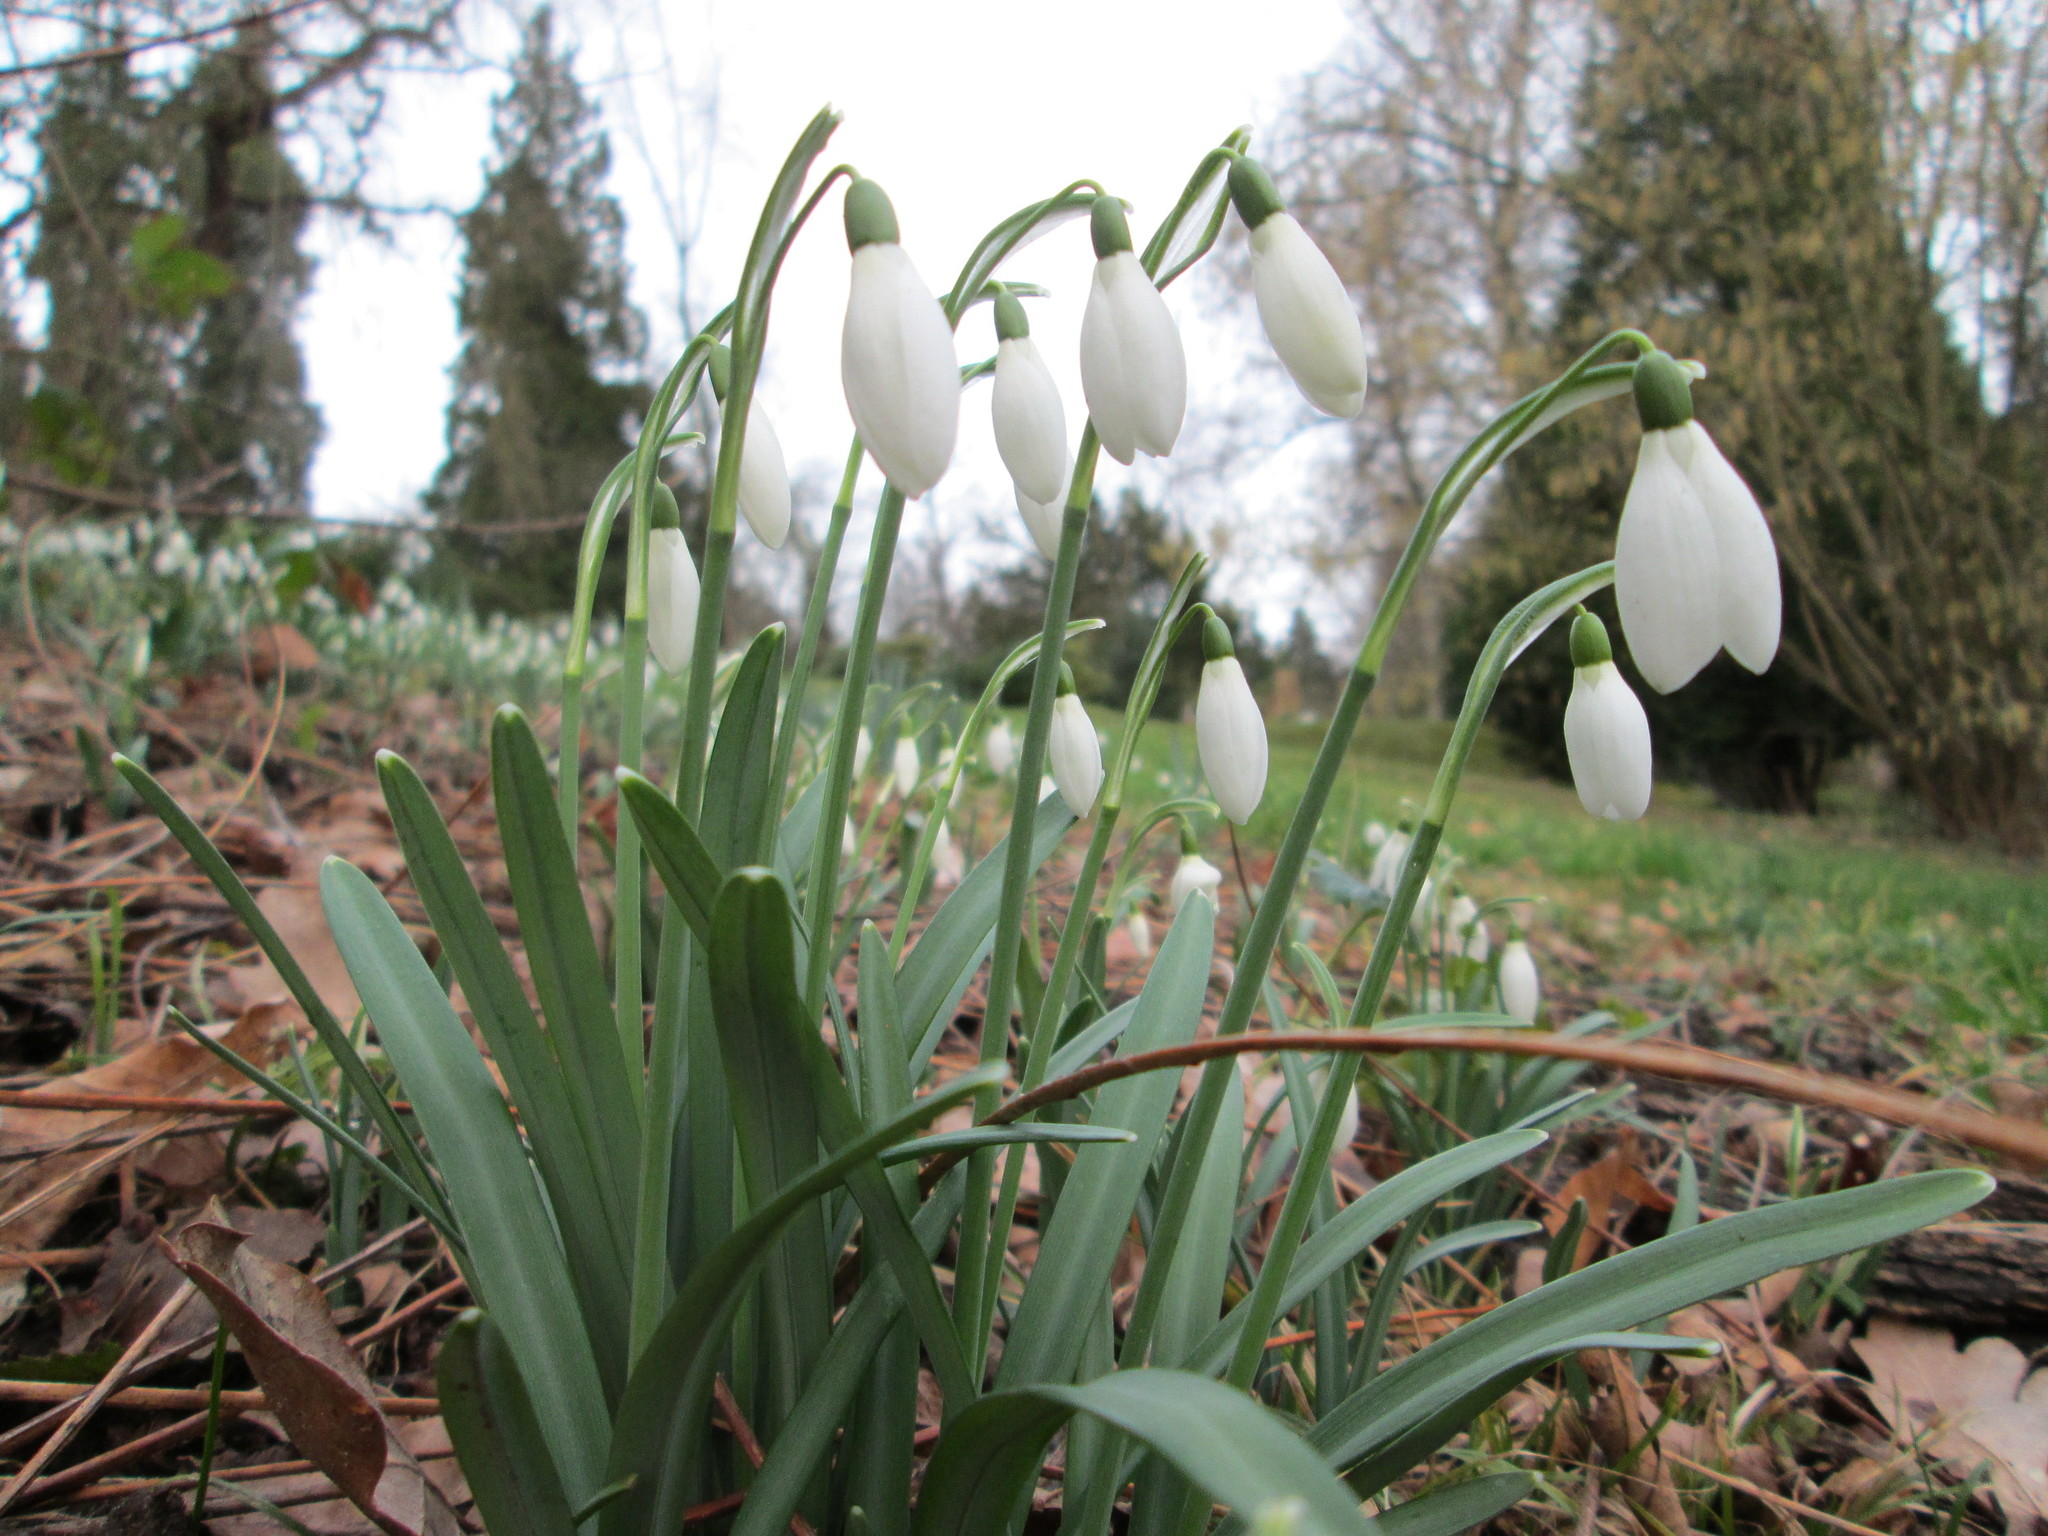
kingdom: Plantae
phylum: Tracheophyta
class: Liliopsida
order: Asparagales
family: Amaryllidaceae
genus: Galanthus
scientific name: Galanthus nivalis
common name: Snowdrop
